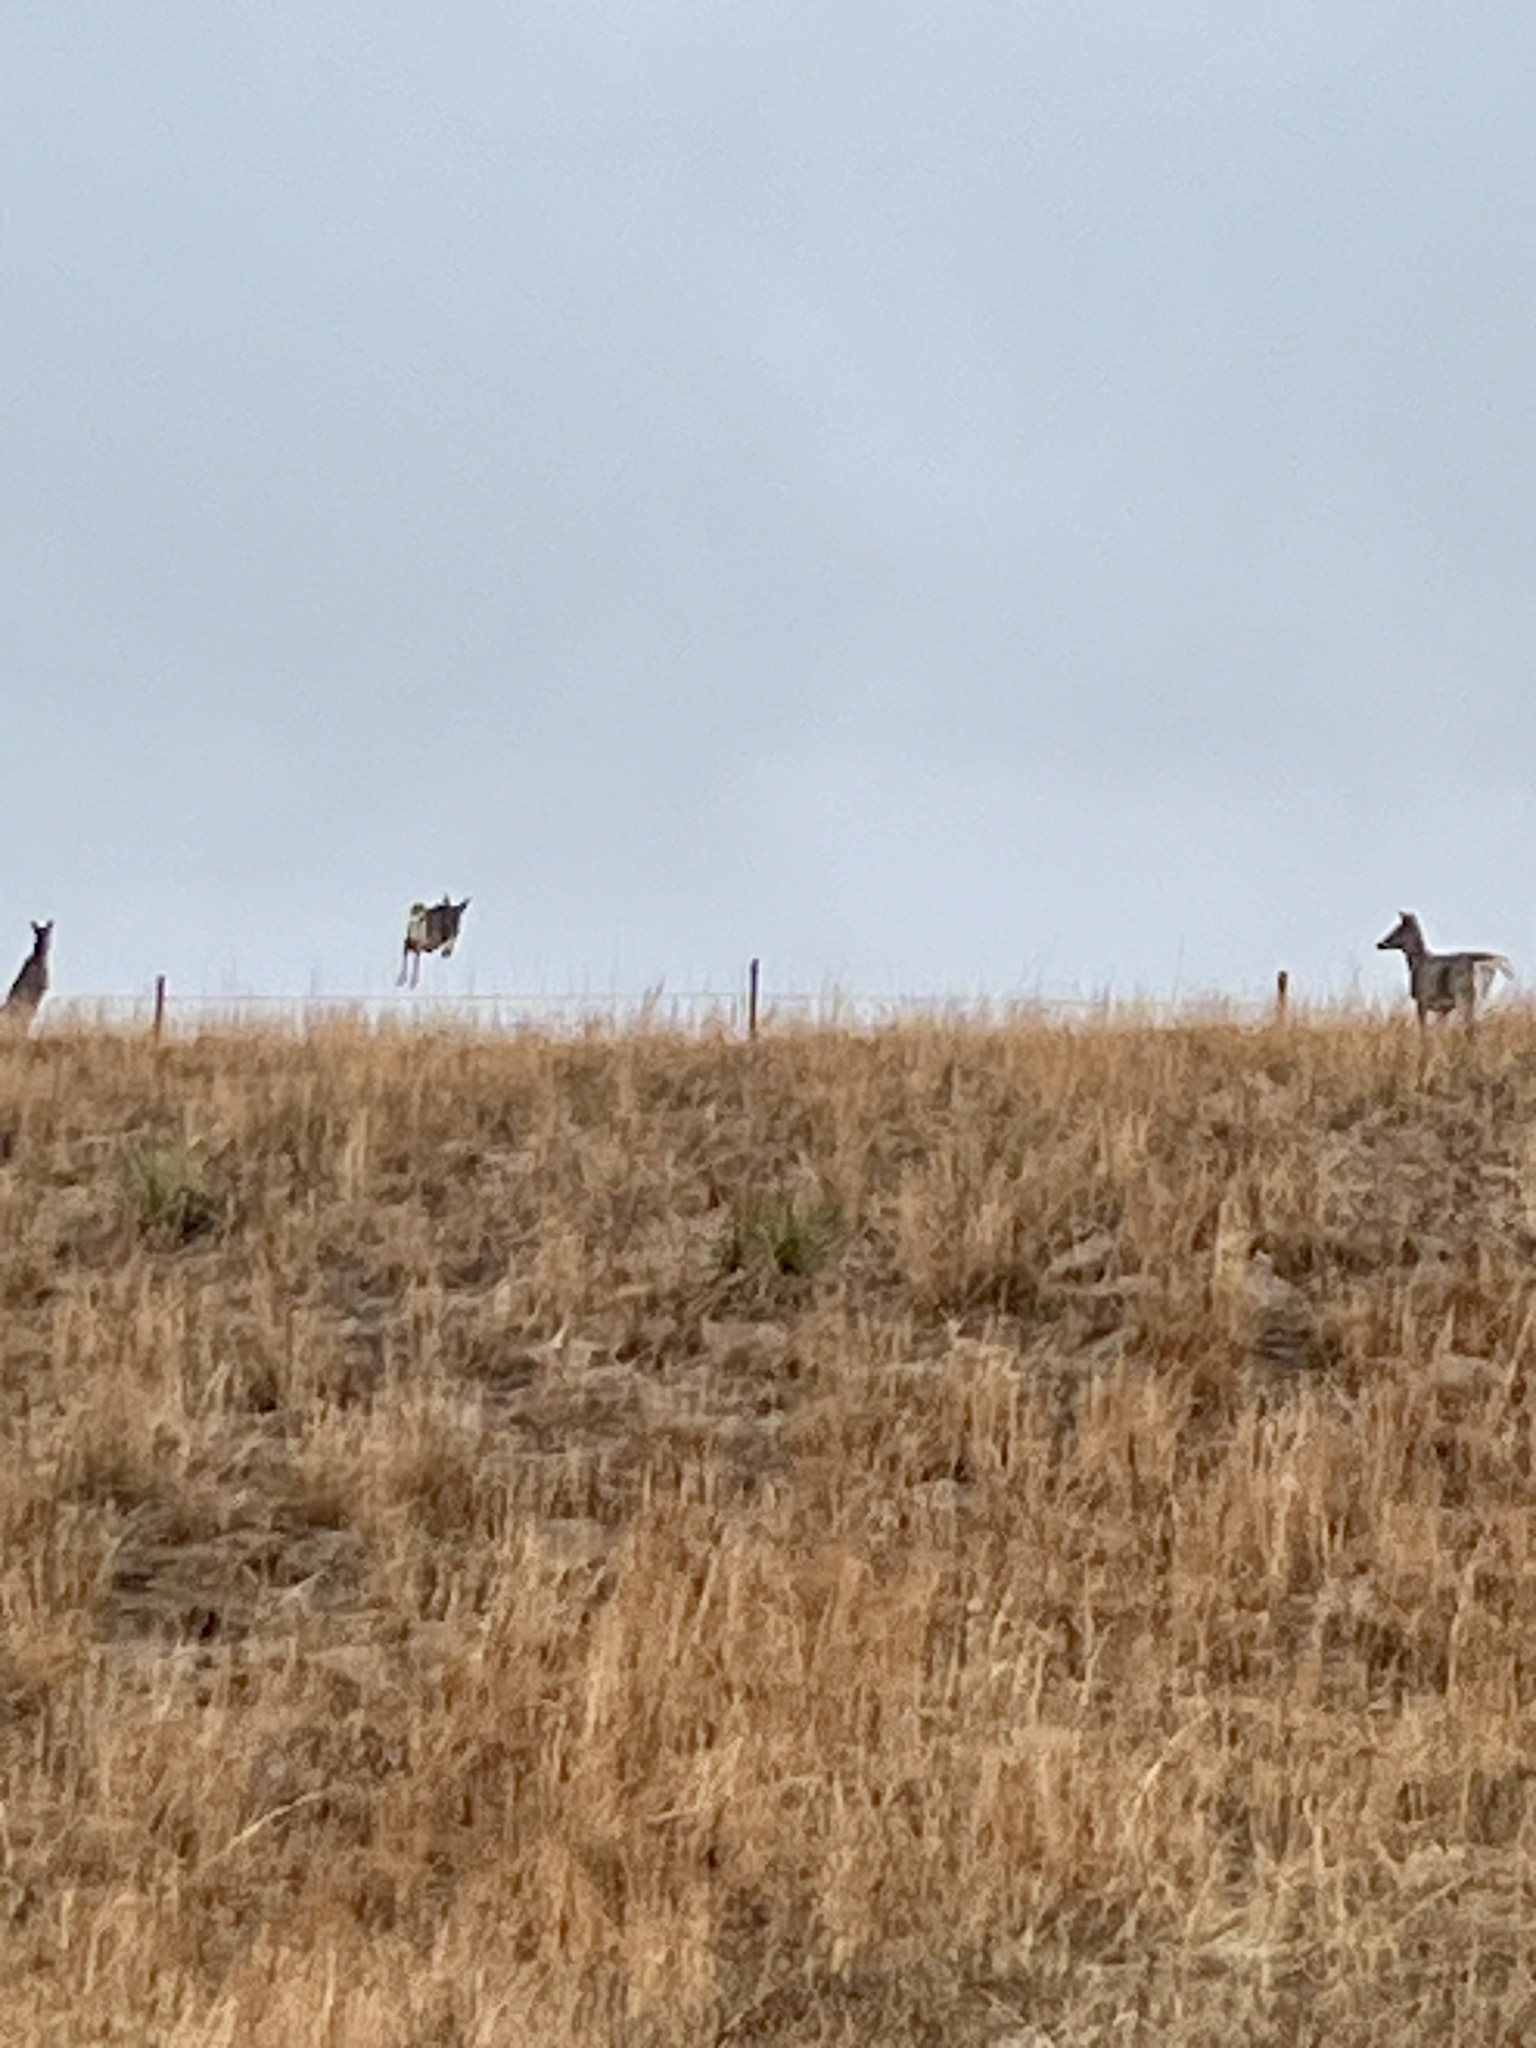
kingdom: Animalia
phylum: Chordata
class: Mammalia
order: Artiodactyla
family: Cervidae
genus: Odocoileus
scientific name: Odocoileus virginianus
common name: White-tailed deer
